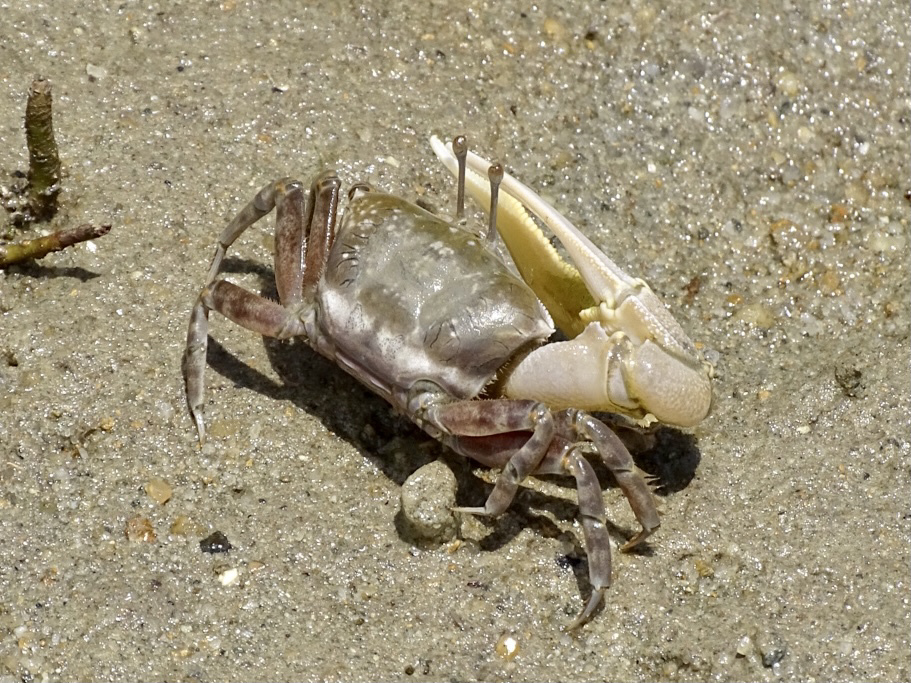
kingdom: Animalia
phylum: Arthropoda
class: Malacostraca
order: Decapoda
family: Ocypodidae
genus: Gelasimus
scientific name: Gelasimus borealis
